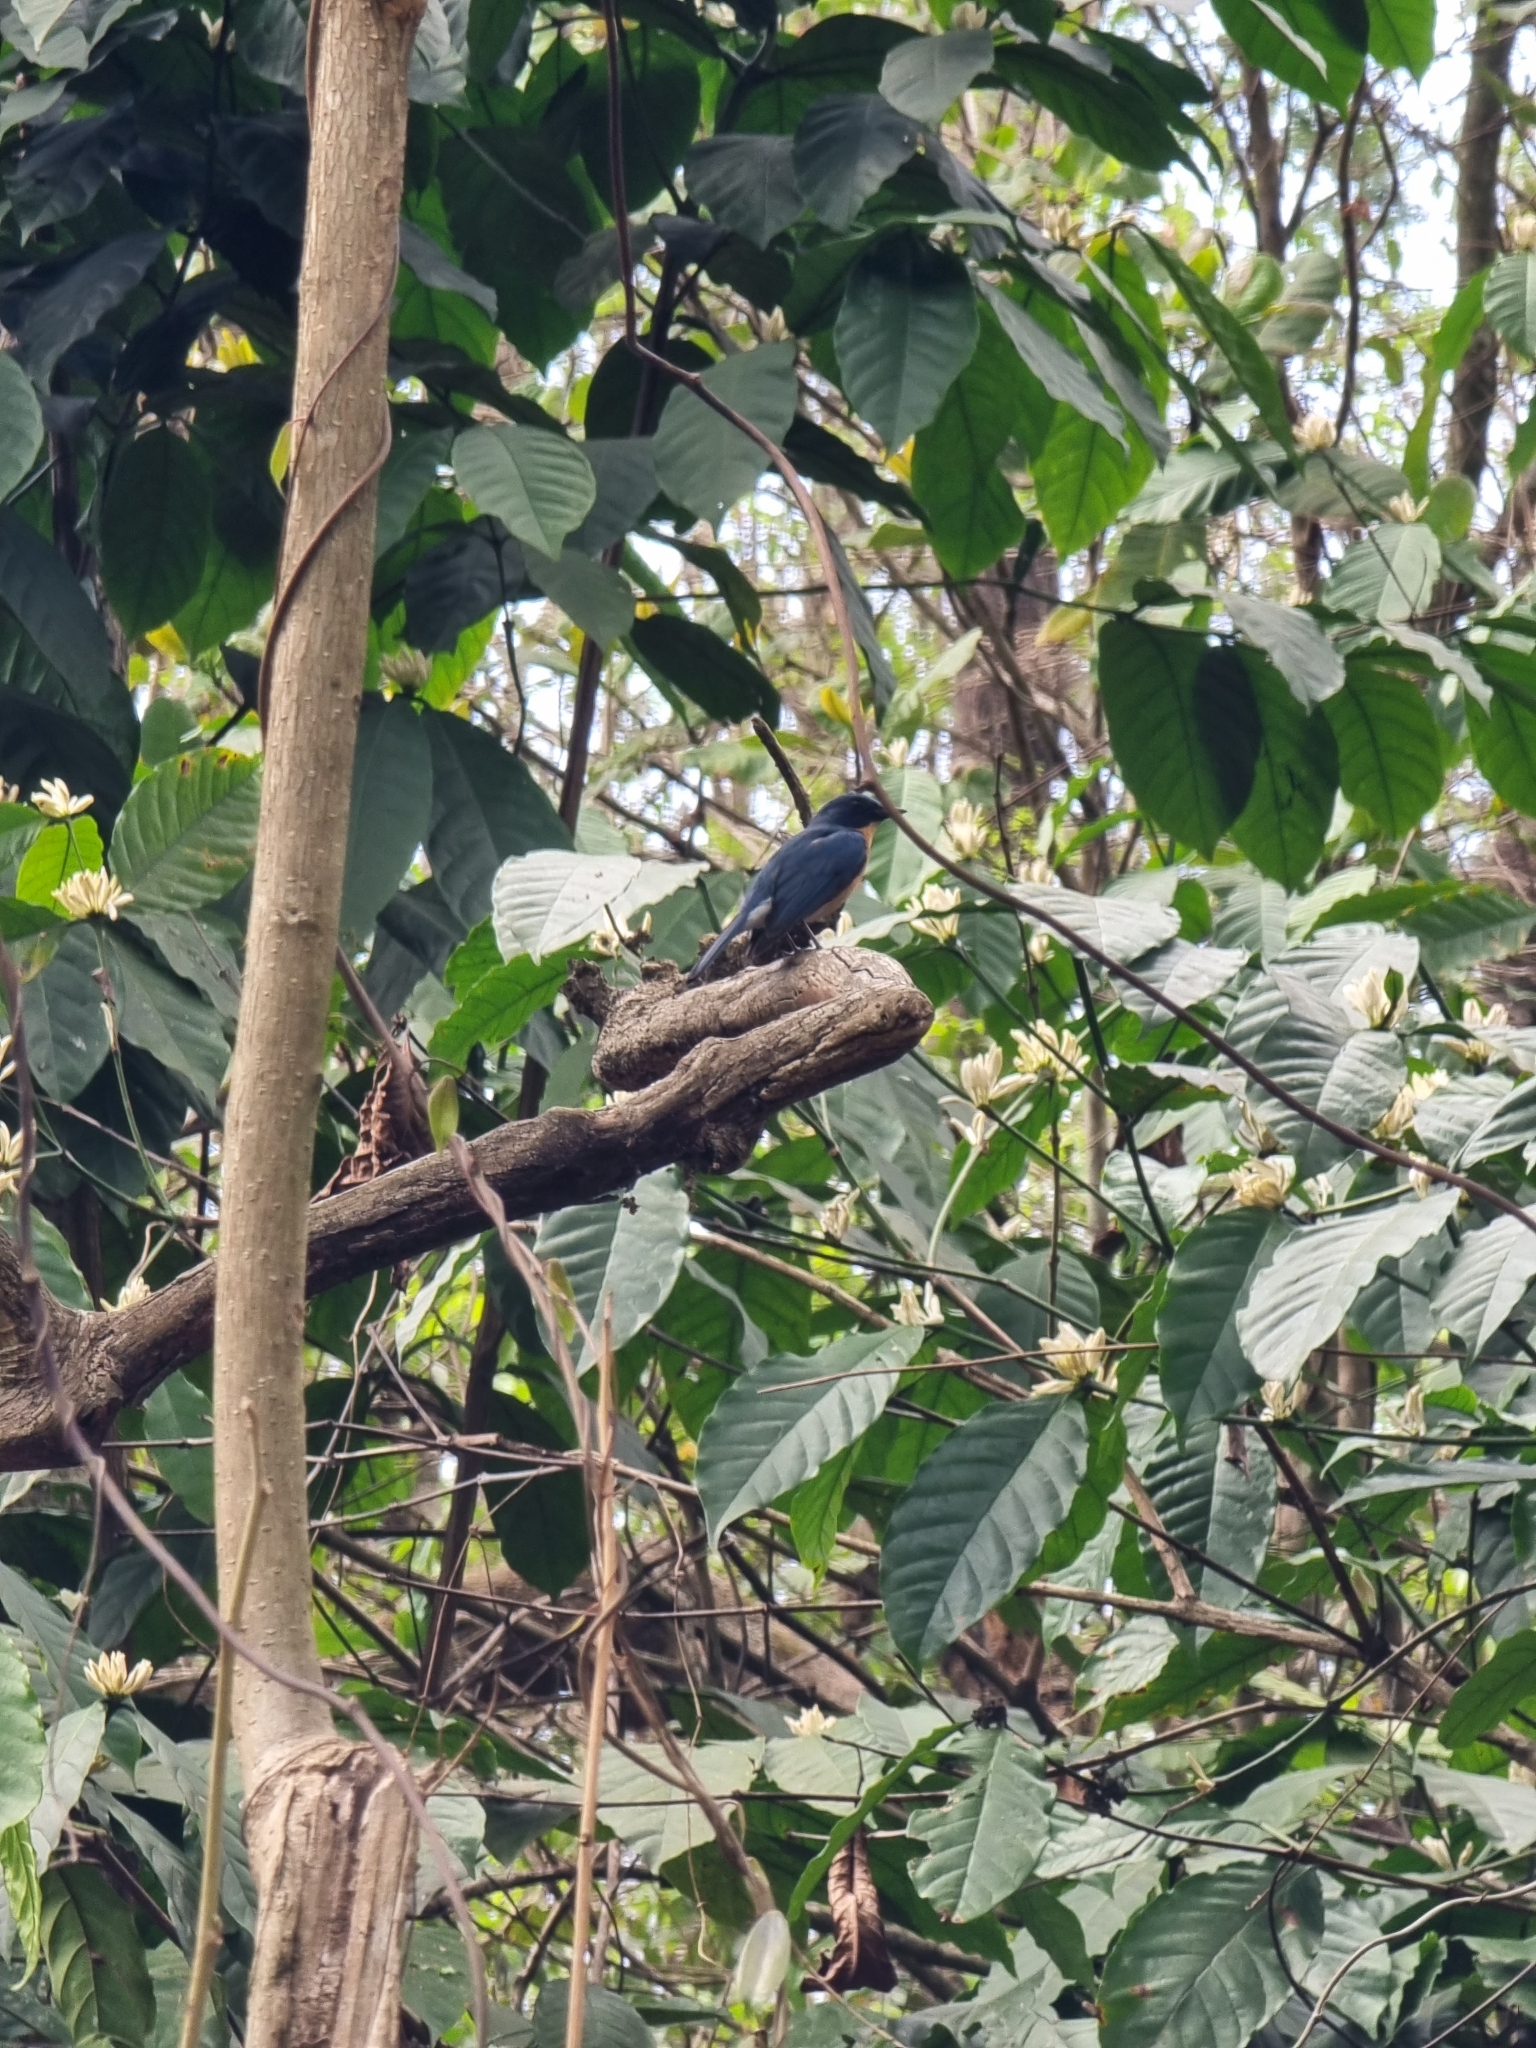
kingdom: Animalia
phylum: Chordata
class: Aves
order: Passeriformes
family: Muscicapidae
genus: Cyornis
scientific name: Cyornis tickelliae
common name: Tickell's blue flycatcher
